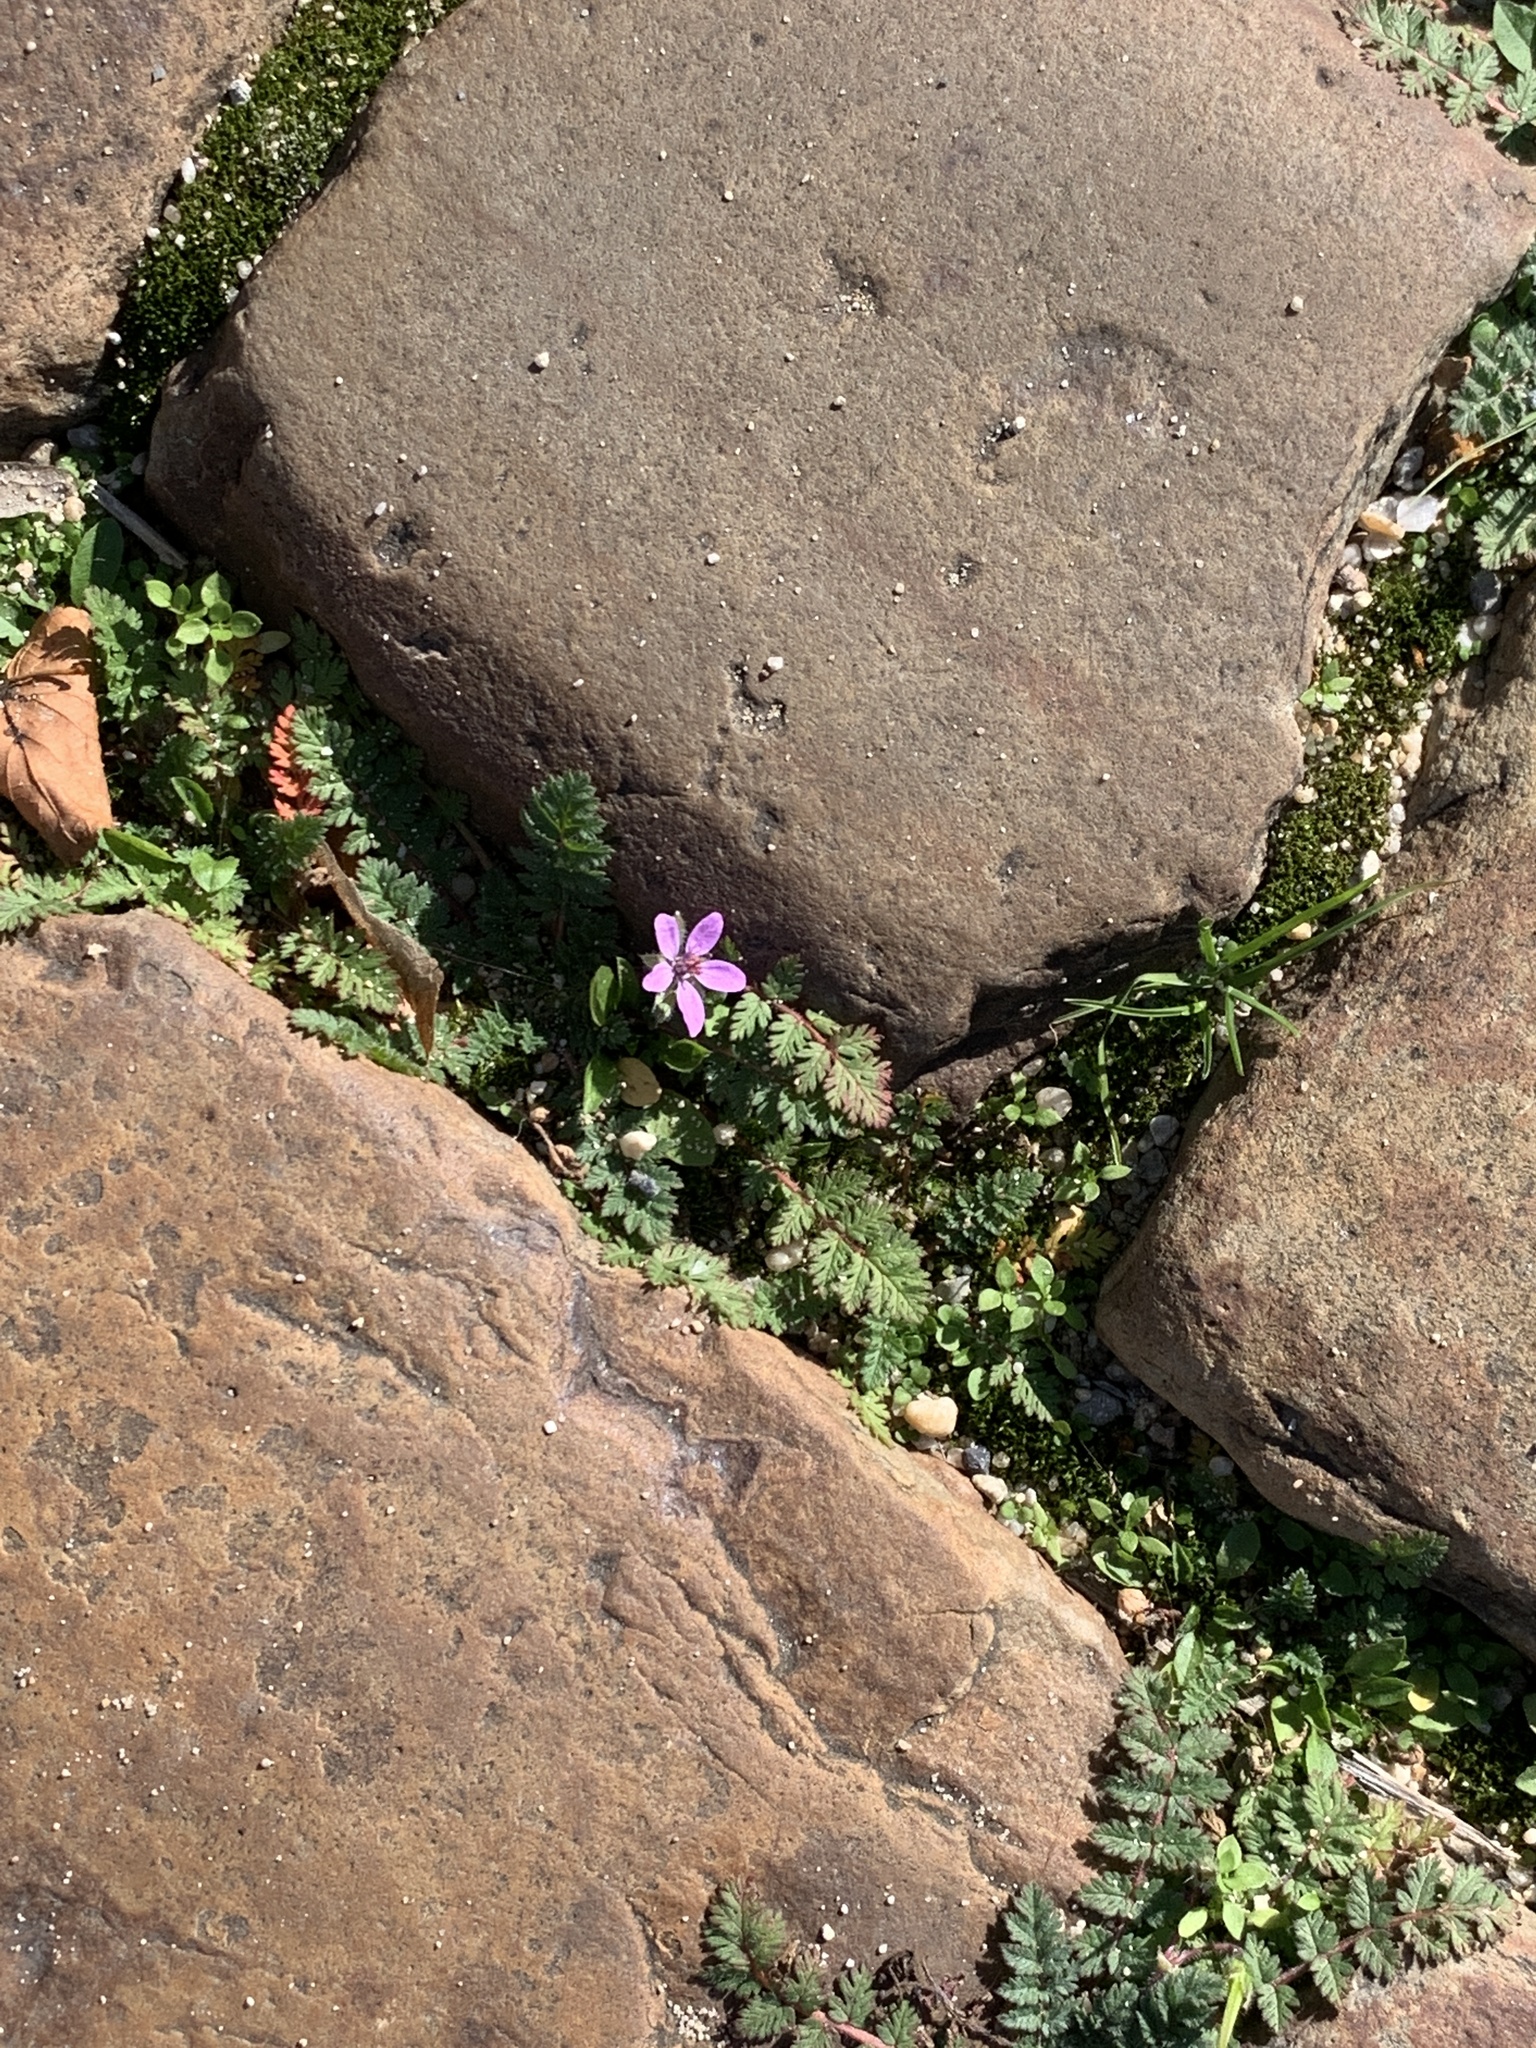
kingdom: Plantae
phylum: Tracheophyta
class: Magnoliopsida
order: Geraniales
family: Geraniaceae
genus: Erodium
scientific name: Erodium cicutarium
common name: Common stork's-bill
